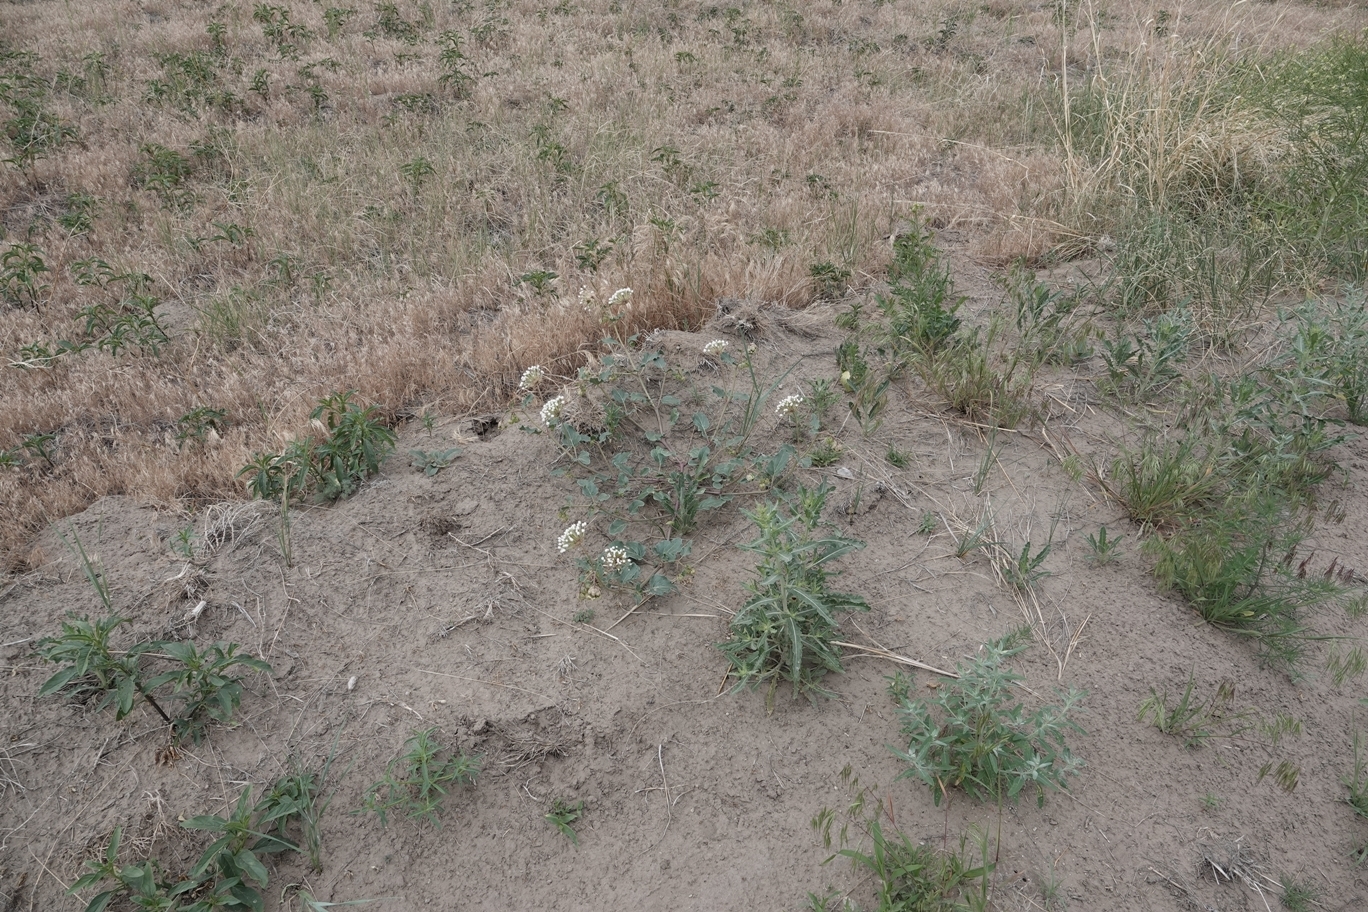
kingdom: Plantae
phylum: Tracheophyta
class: Magnoliopsida
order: Caryophyllales
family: Nyctaginaceae
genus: Abronia
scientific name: Abronia fragrans
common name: Fragrant sand-verbena
